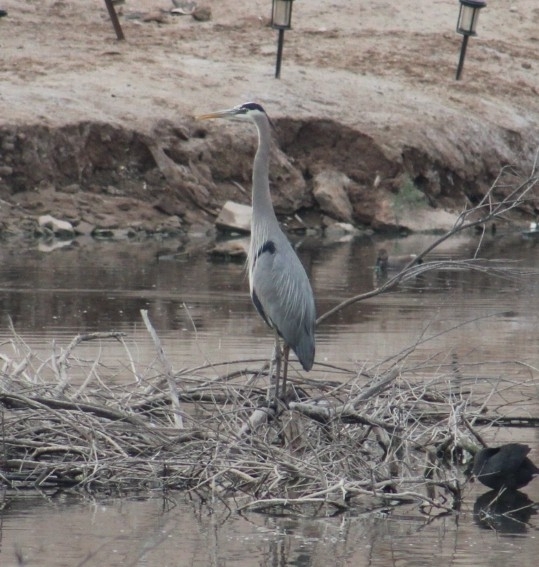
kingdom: Animalia
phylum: Chordata
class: Aves
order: Pelecaniformes
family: Ardeidae
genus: Ardea
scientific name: Ardea herodias
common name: Great blue heron
